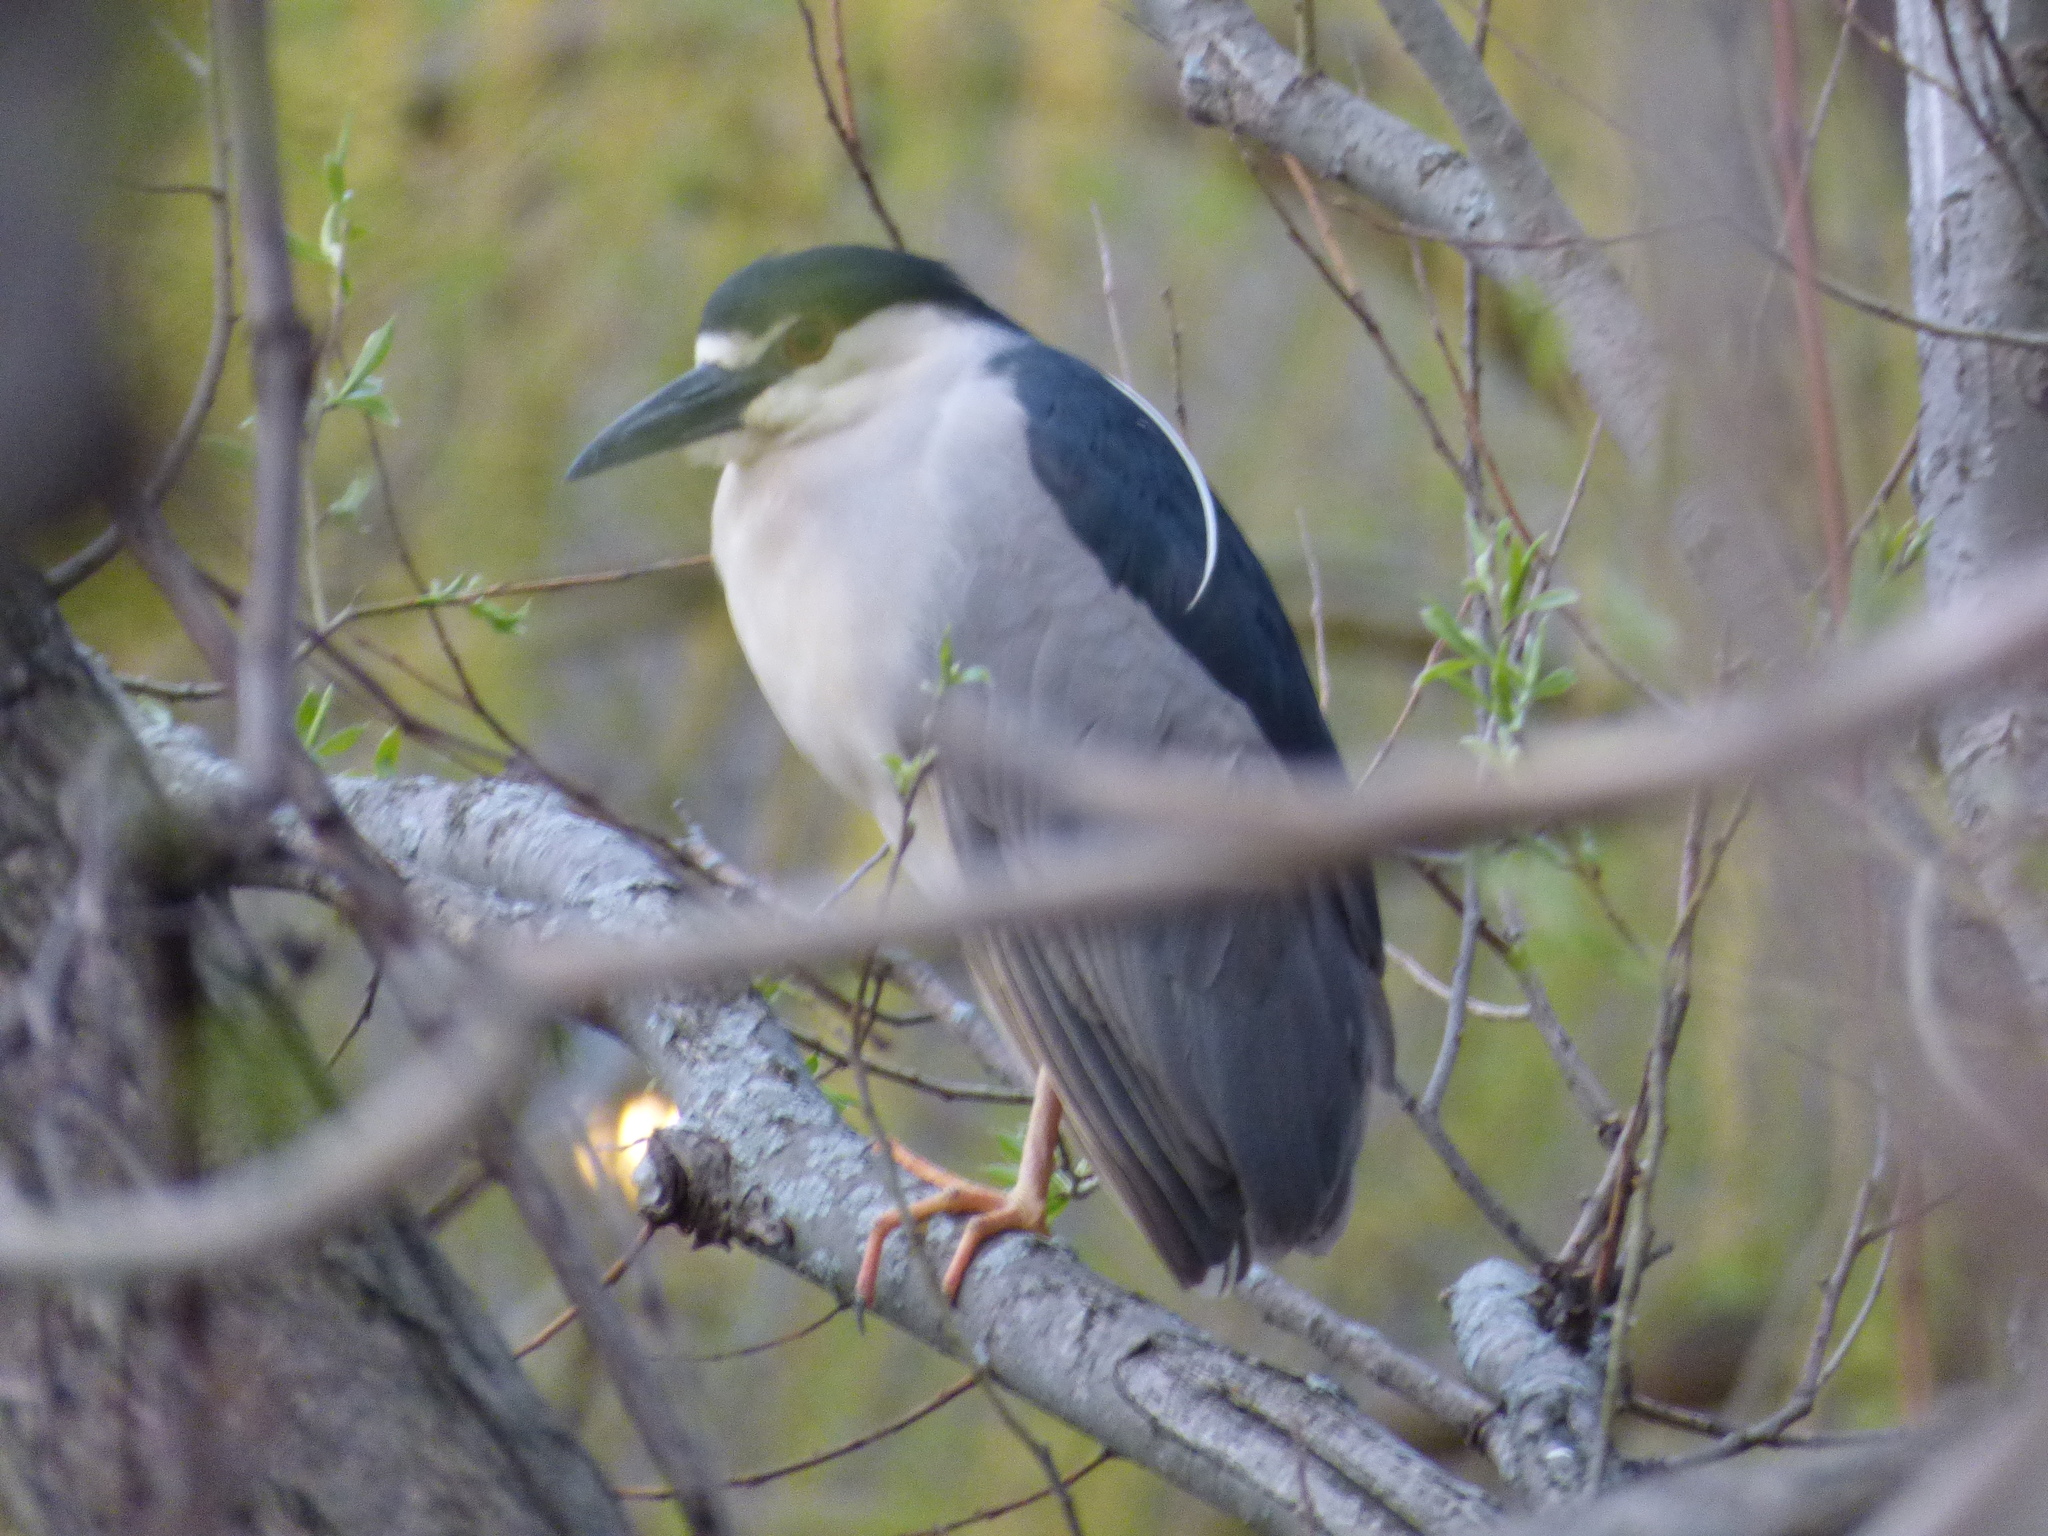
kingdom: Animalia
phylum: Chordata
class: Aves
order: Pelecaniformes
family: Ardeidae
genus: Nycticorax
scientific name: Nycticorax nycticorax
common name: Black-crowned night heron
